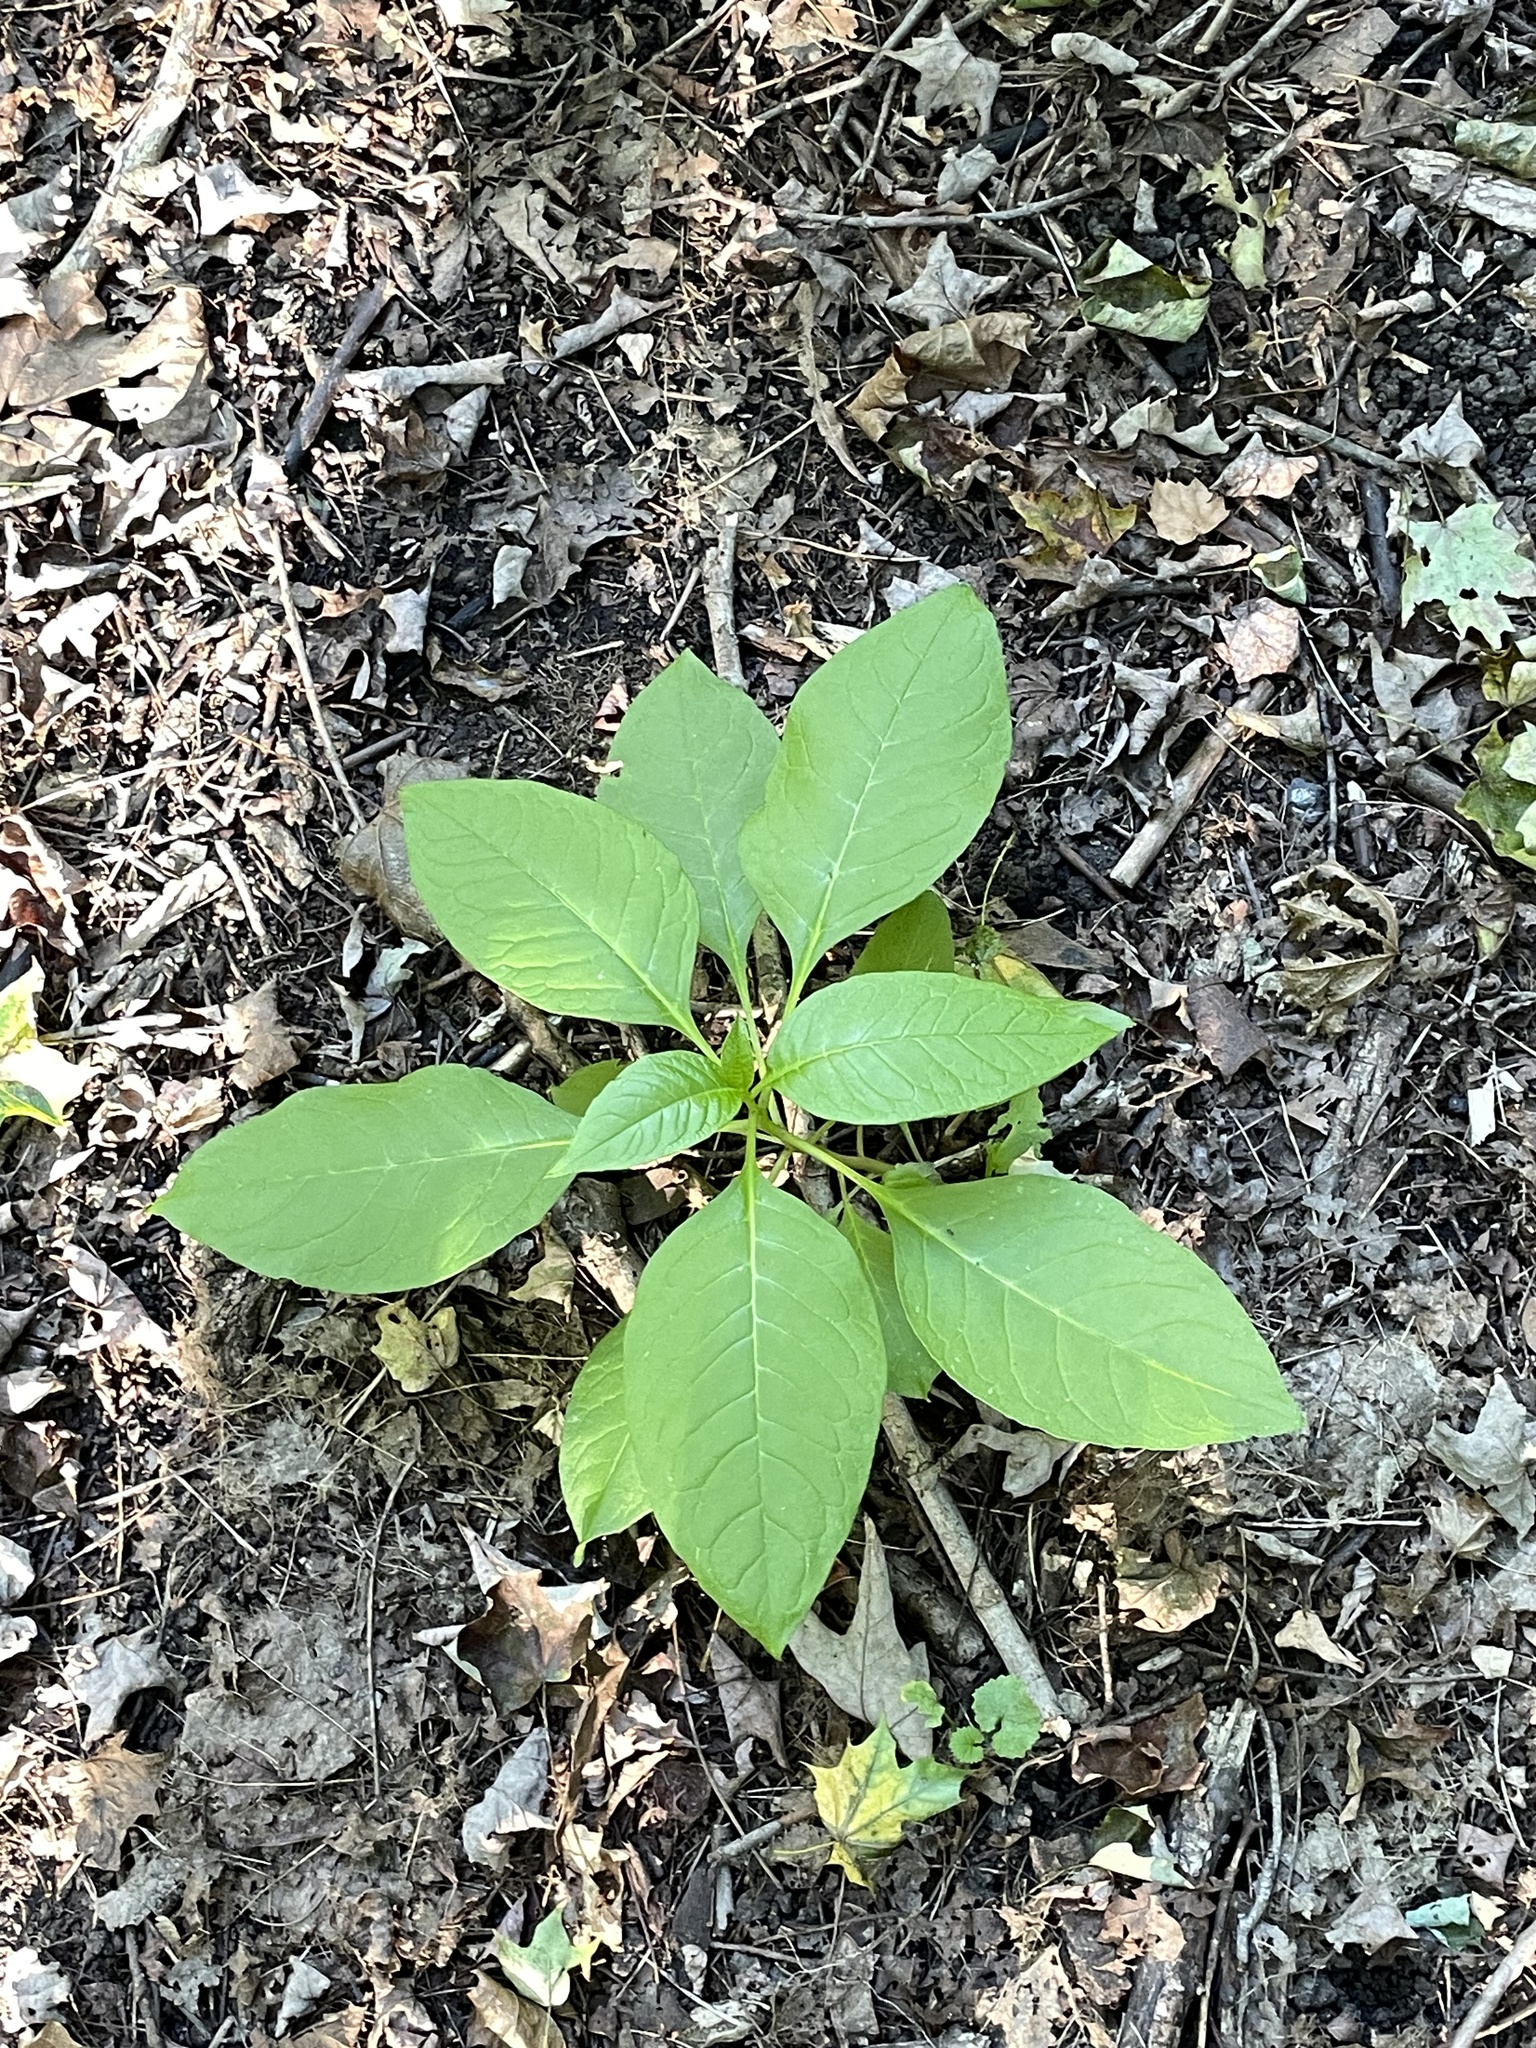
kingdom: Plantae
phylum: Tracheophyta
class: Magnoliopsida
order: Caryophyllales
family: Phytolaccaceae
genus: Phytolacca
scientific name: Phytolacca americana
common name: American pokeweed
